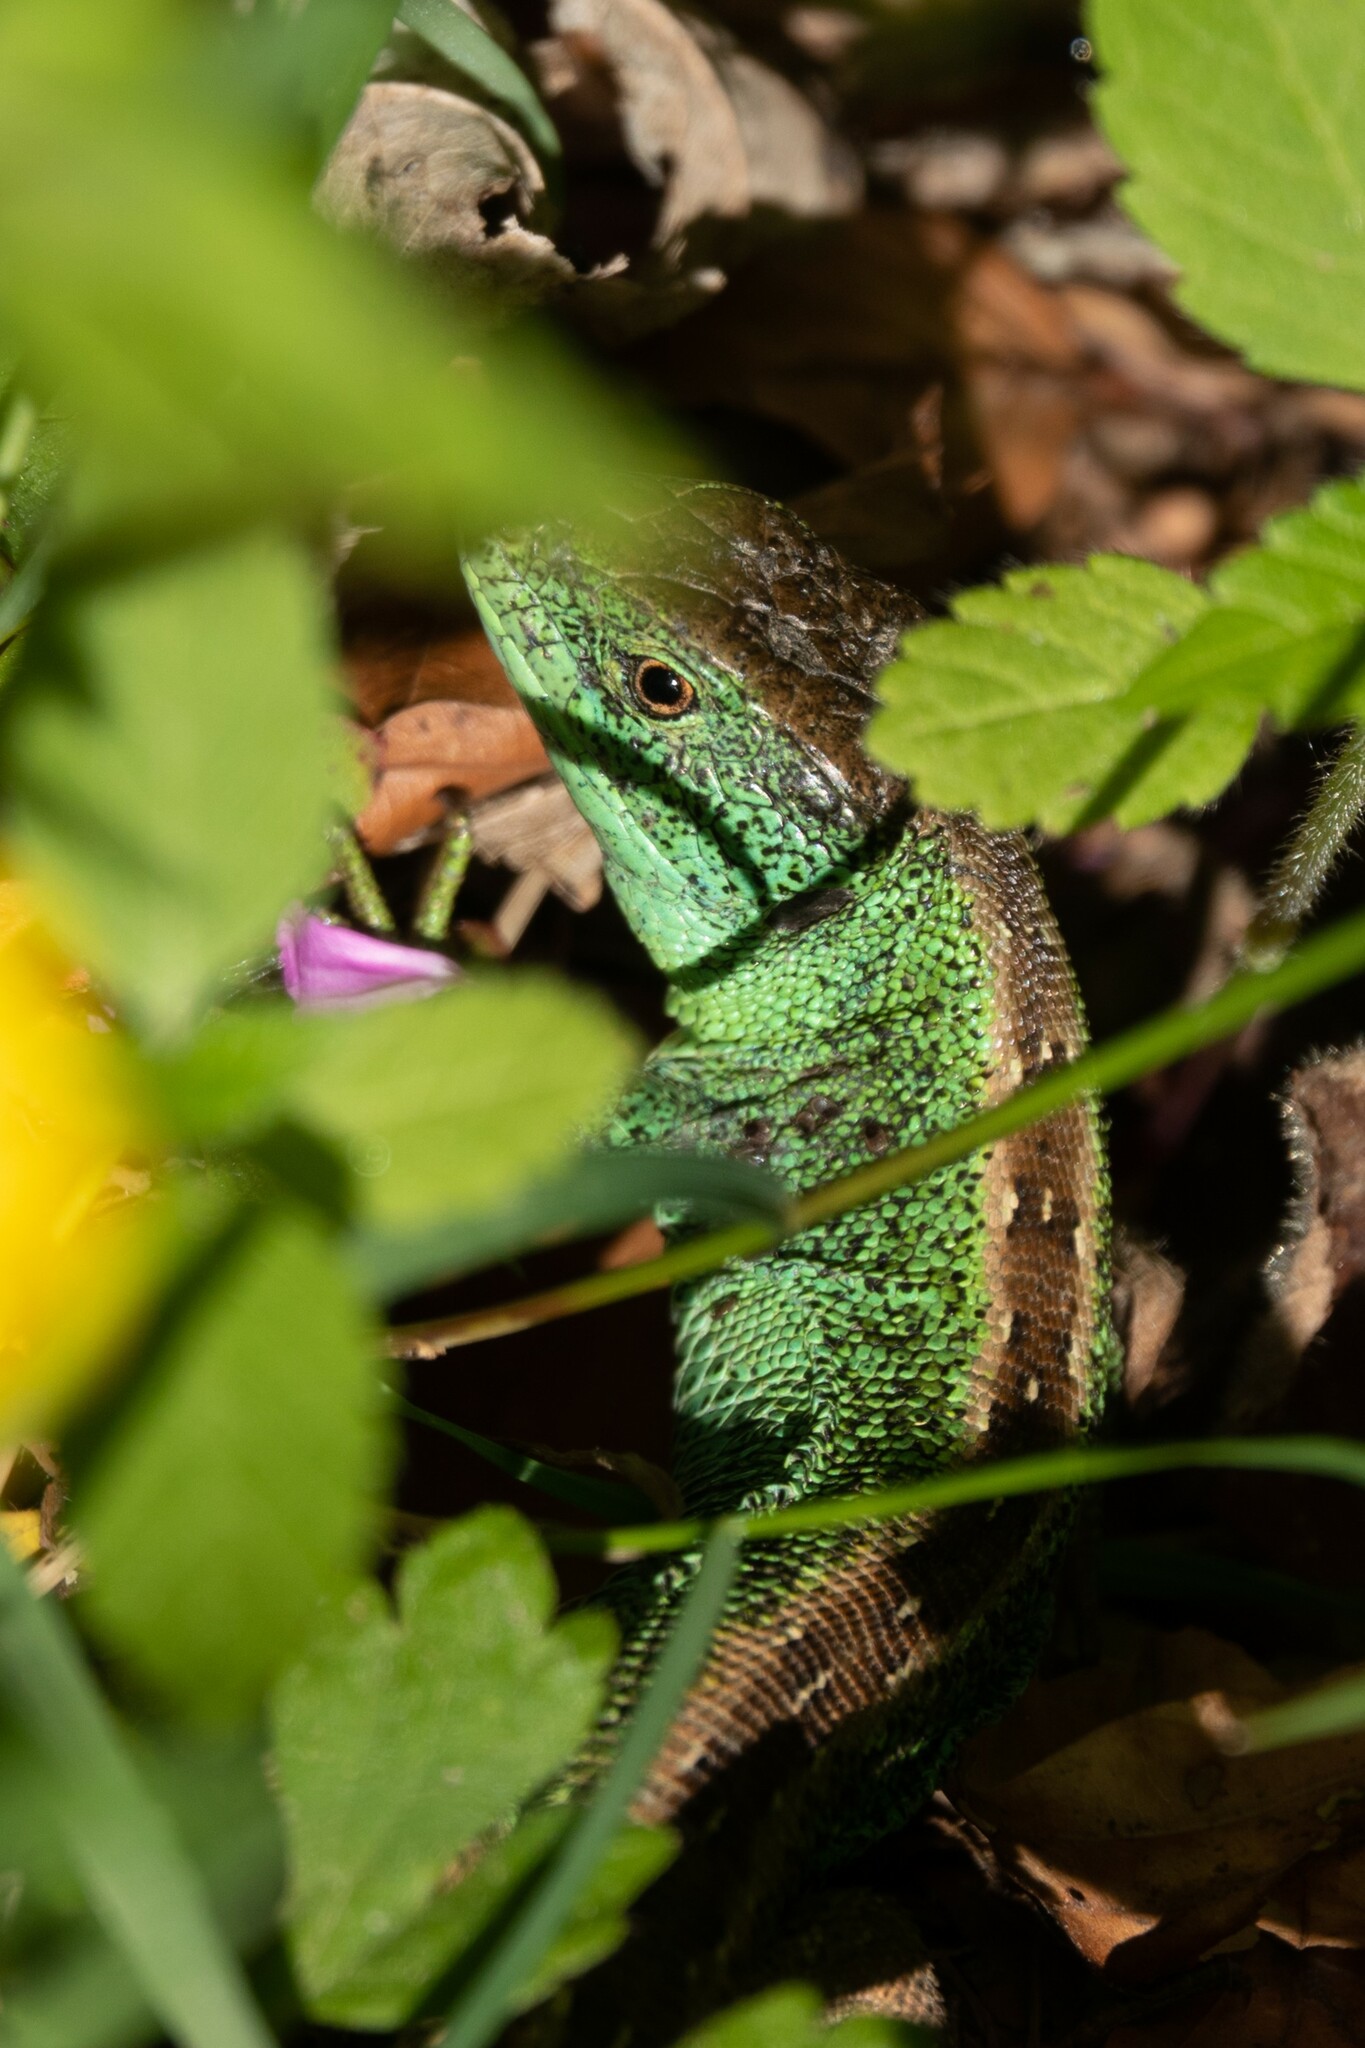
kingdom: Animalia
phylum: Chordata
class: Squamata
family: Lacertidae
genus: Lacerta
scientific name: Lacerta agilis
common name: Sand lizard
